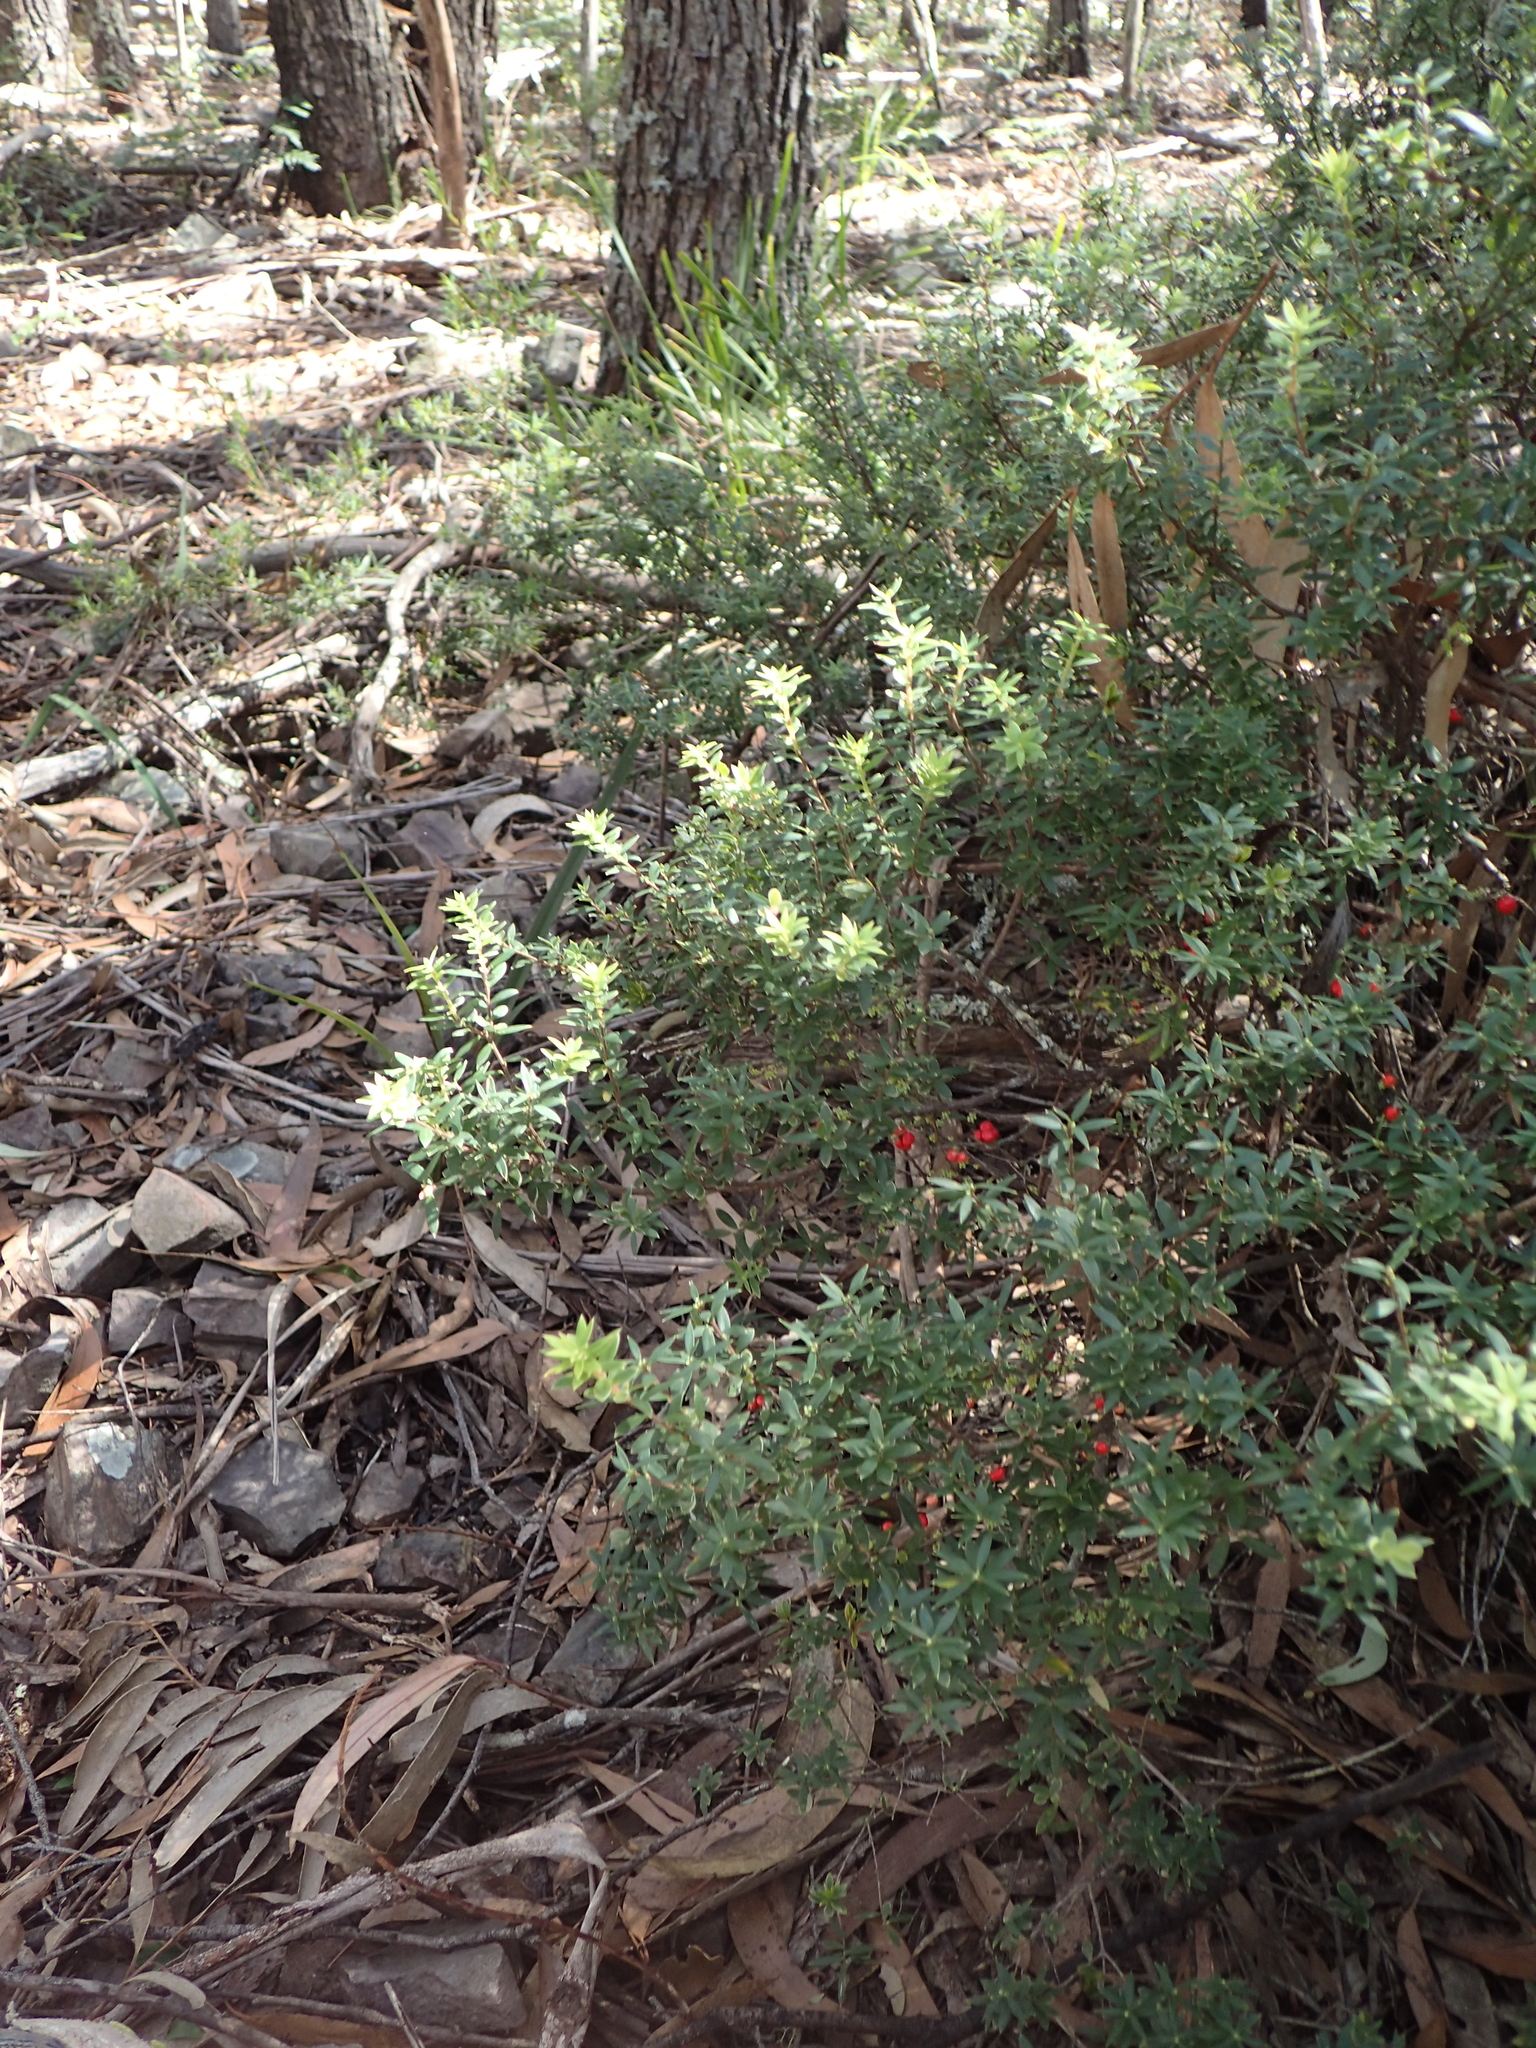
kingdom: Plantae
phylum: Tracheophyta
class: Magnoliopsida
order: Ericales
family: Ericaceae
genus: Acrotriche
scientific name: Acrotriche aggregata
